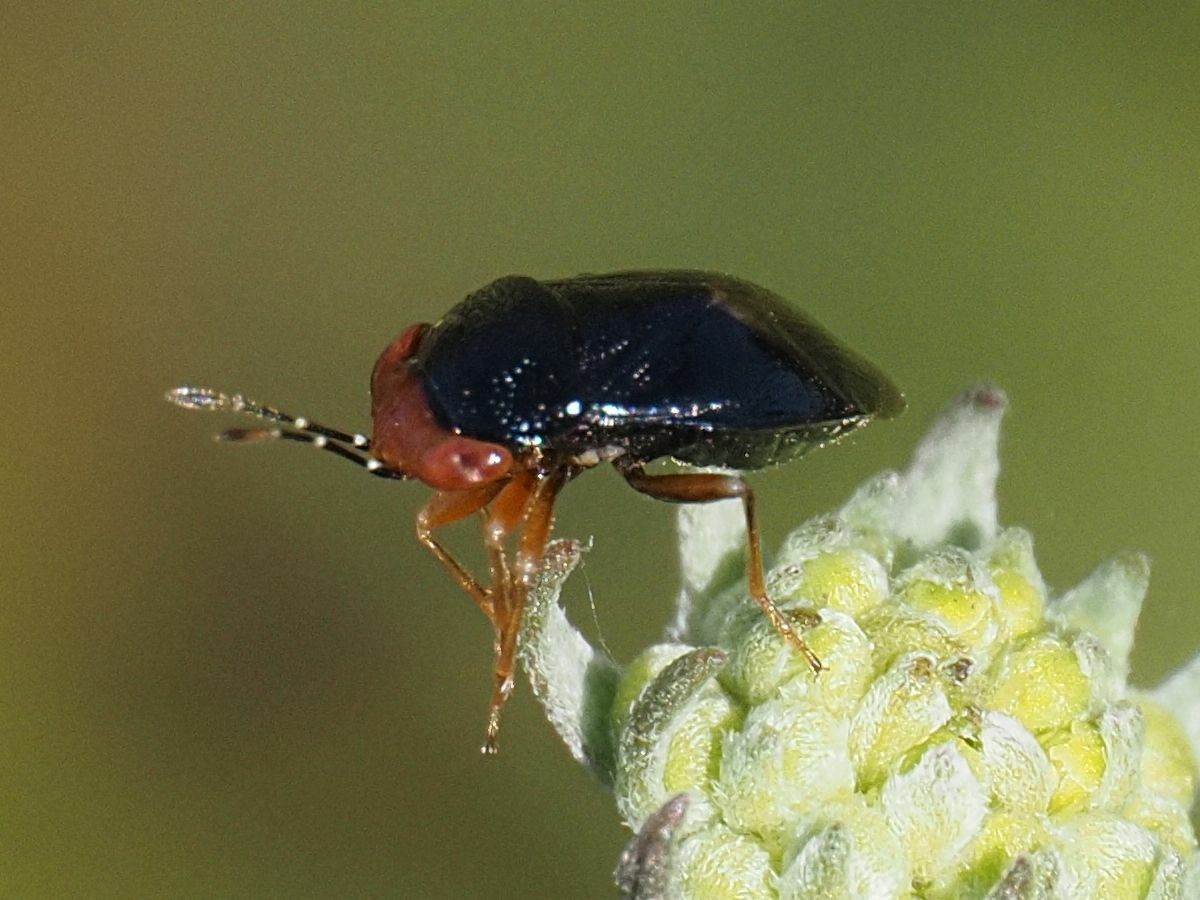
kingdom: Animalia
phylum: Arthropoda
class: Insecta
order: Hemiptera
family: Geocoridae
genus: Geocoris
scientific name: Geocoris erythrocephala
